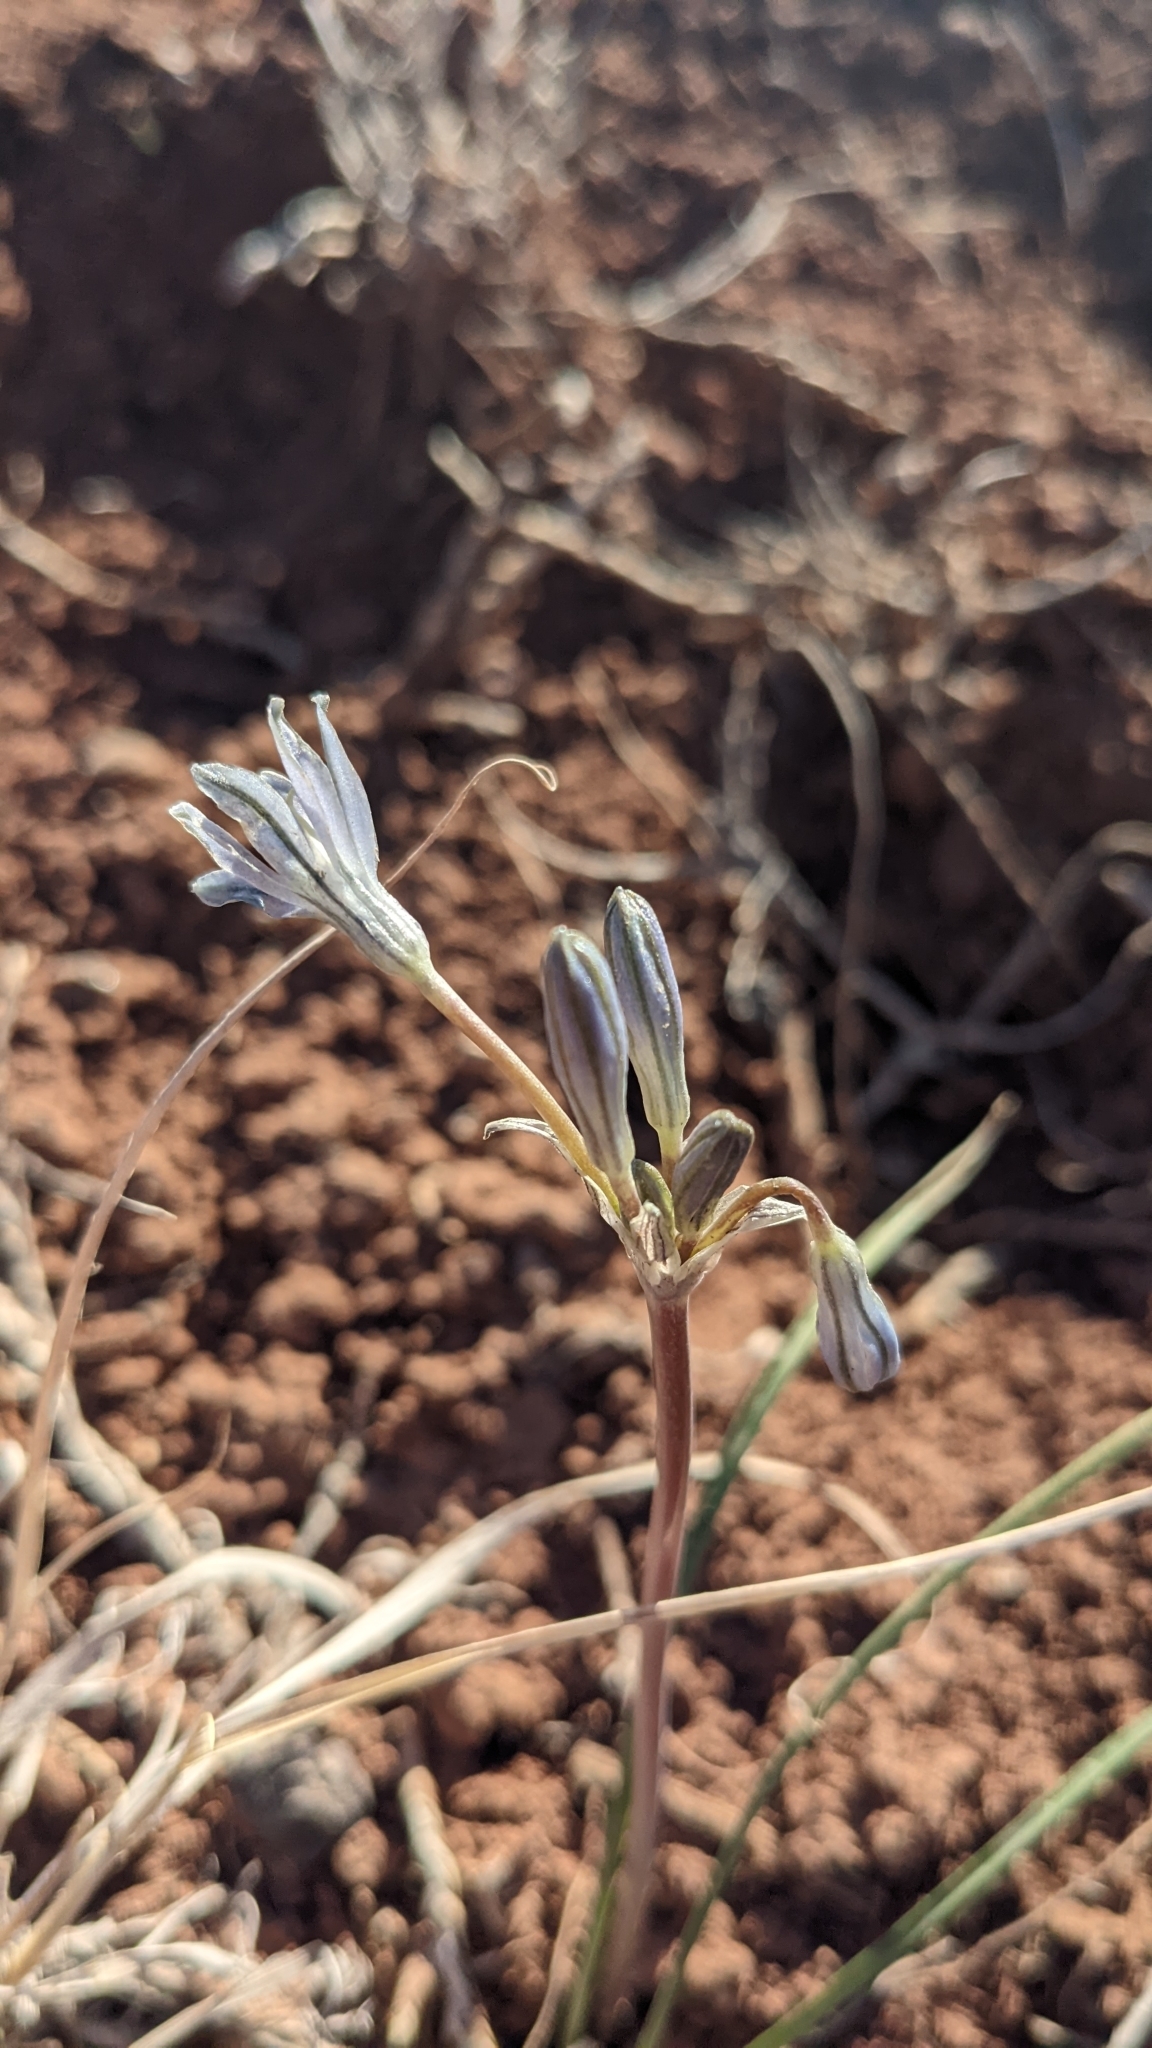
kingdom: Plantae
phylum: Tracheophyta
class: Liliopsida
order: Asparagales
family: Asparagaceae
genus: Androstephium
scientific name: Androstephium breviflorum
